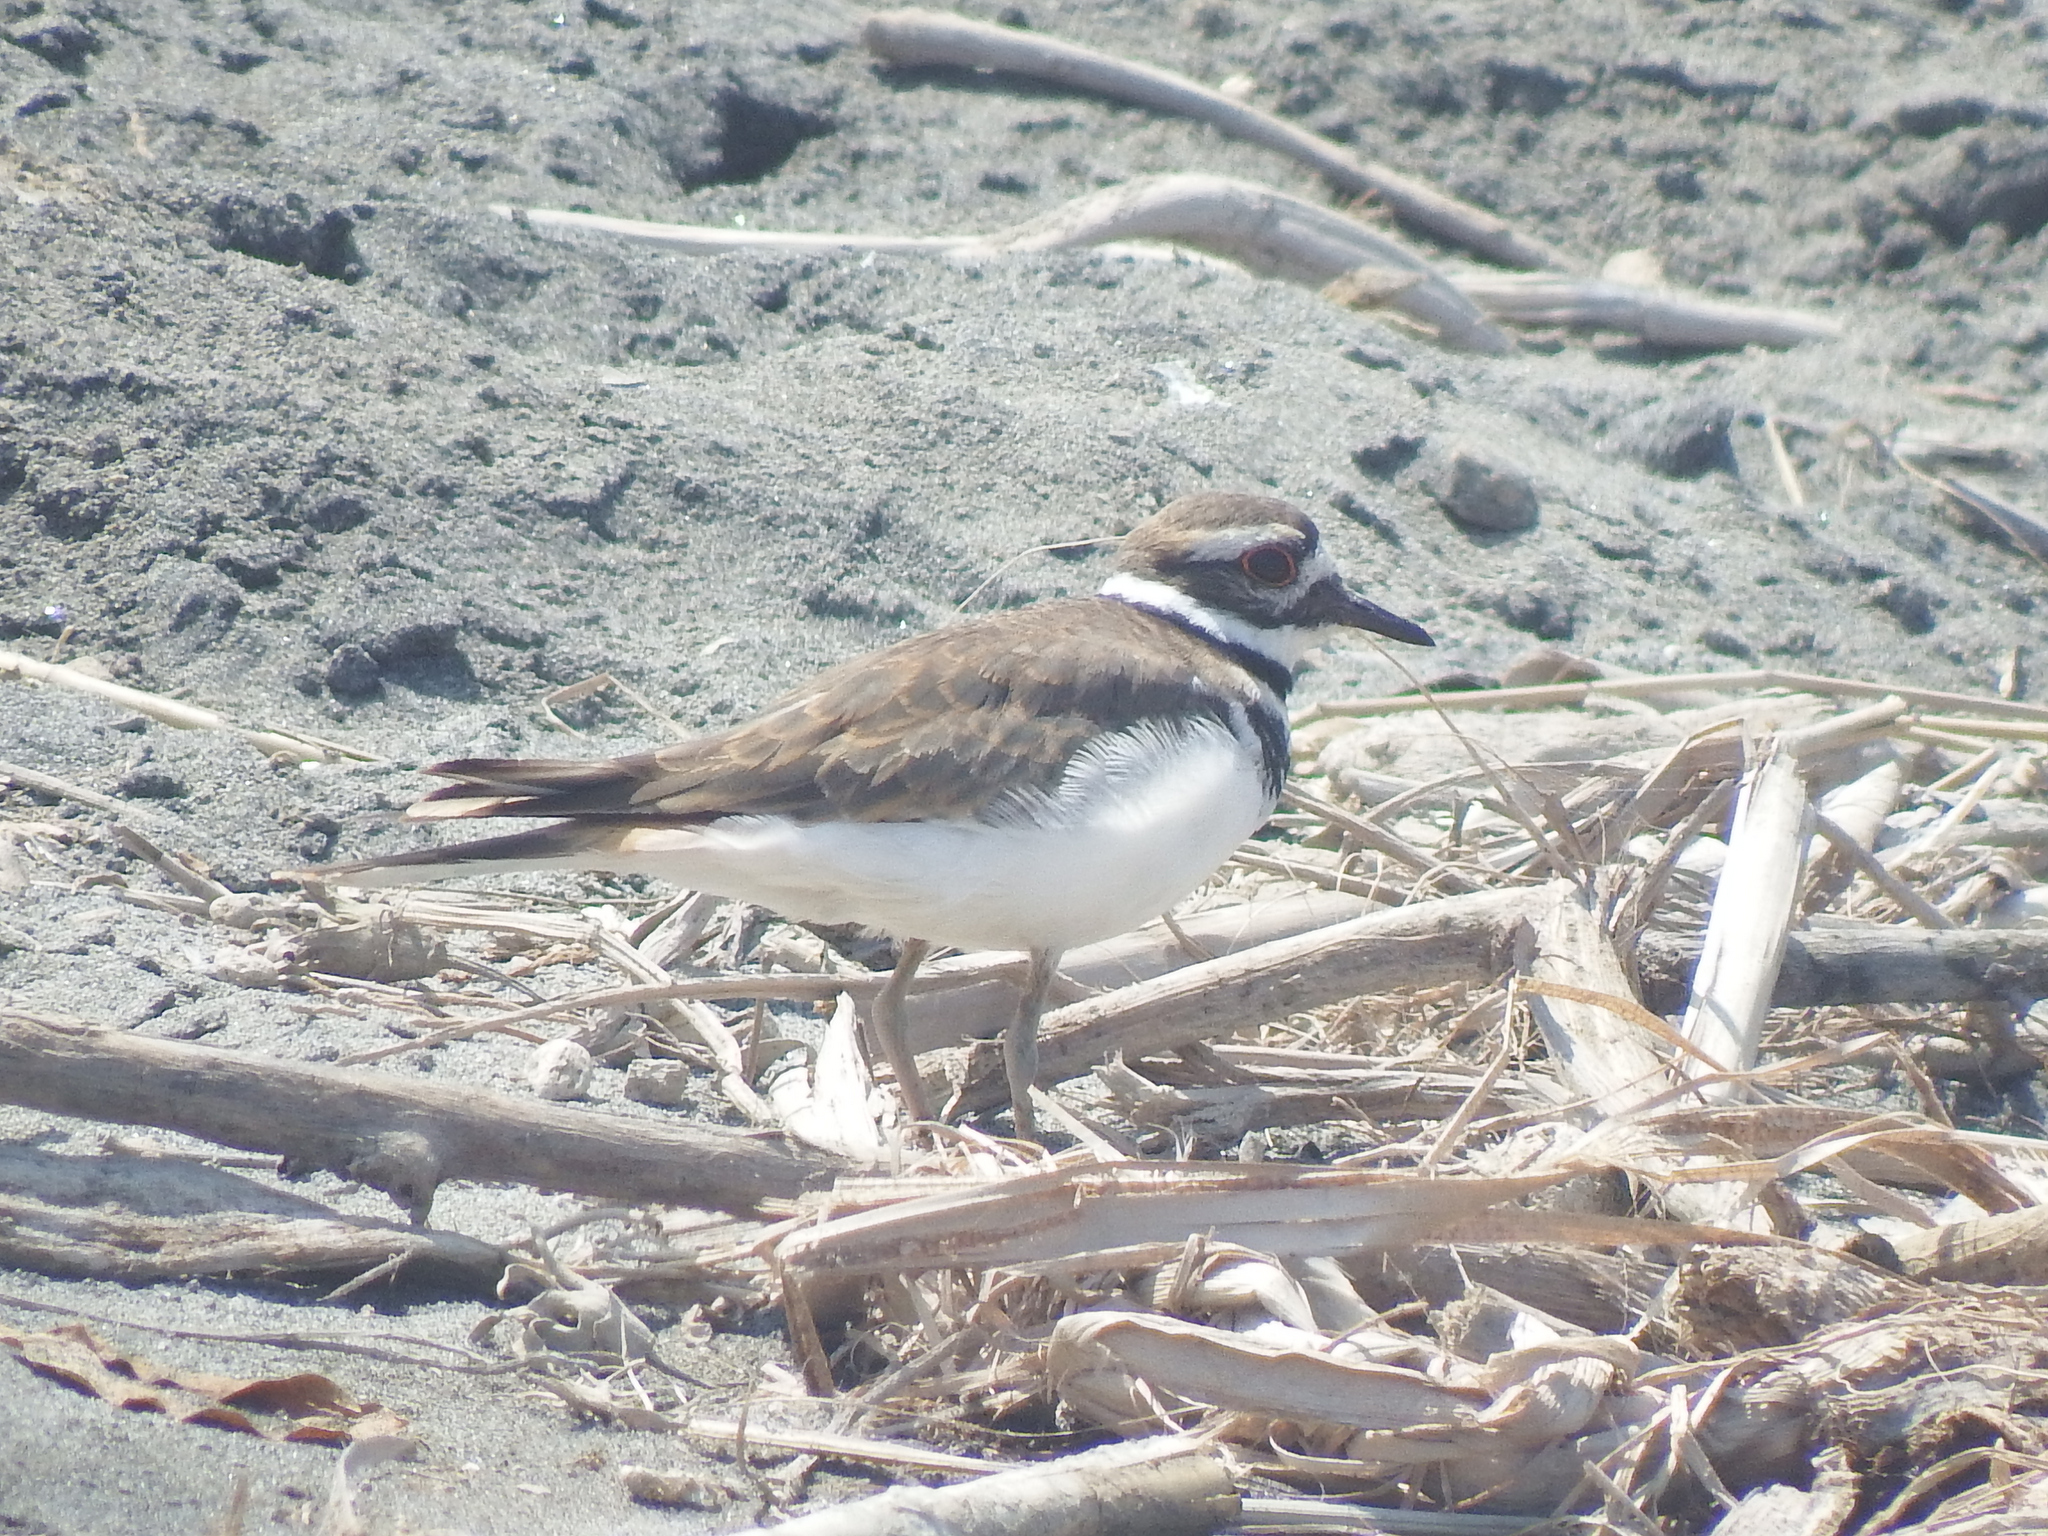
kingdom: Animalia
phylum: Chordata
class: Aves
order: Charadriiformes
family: Charadriidae
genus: Charadrius
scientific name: Charadrius vociferus
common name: Killdeer
